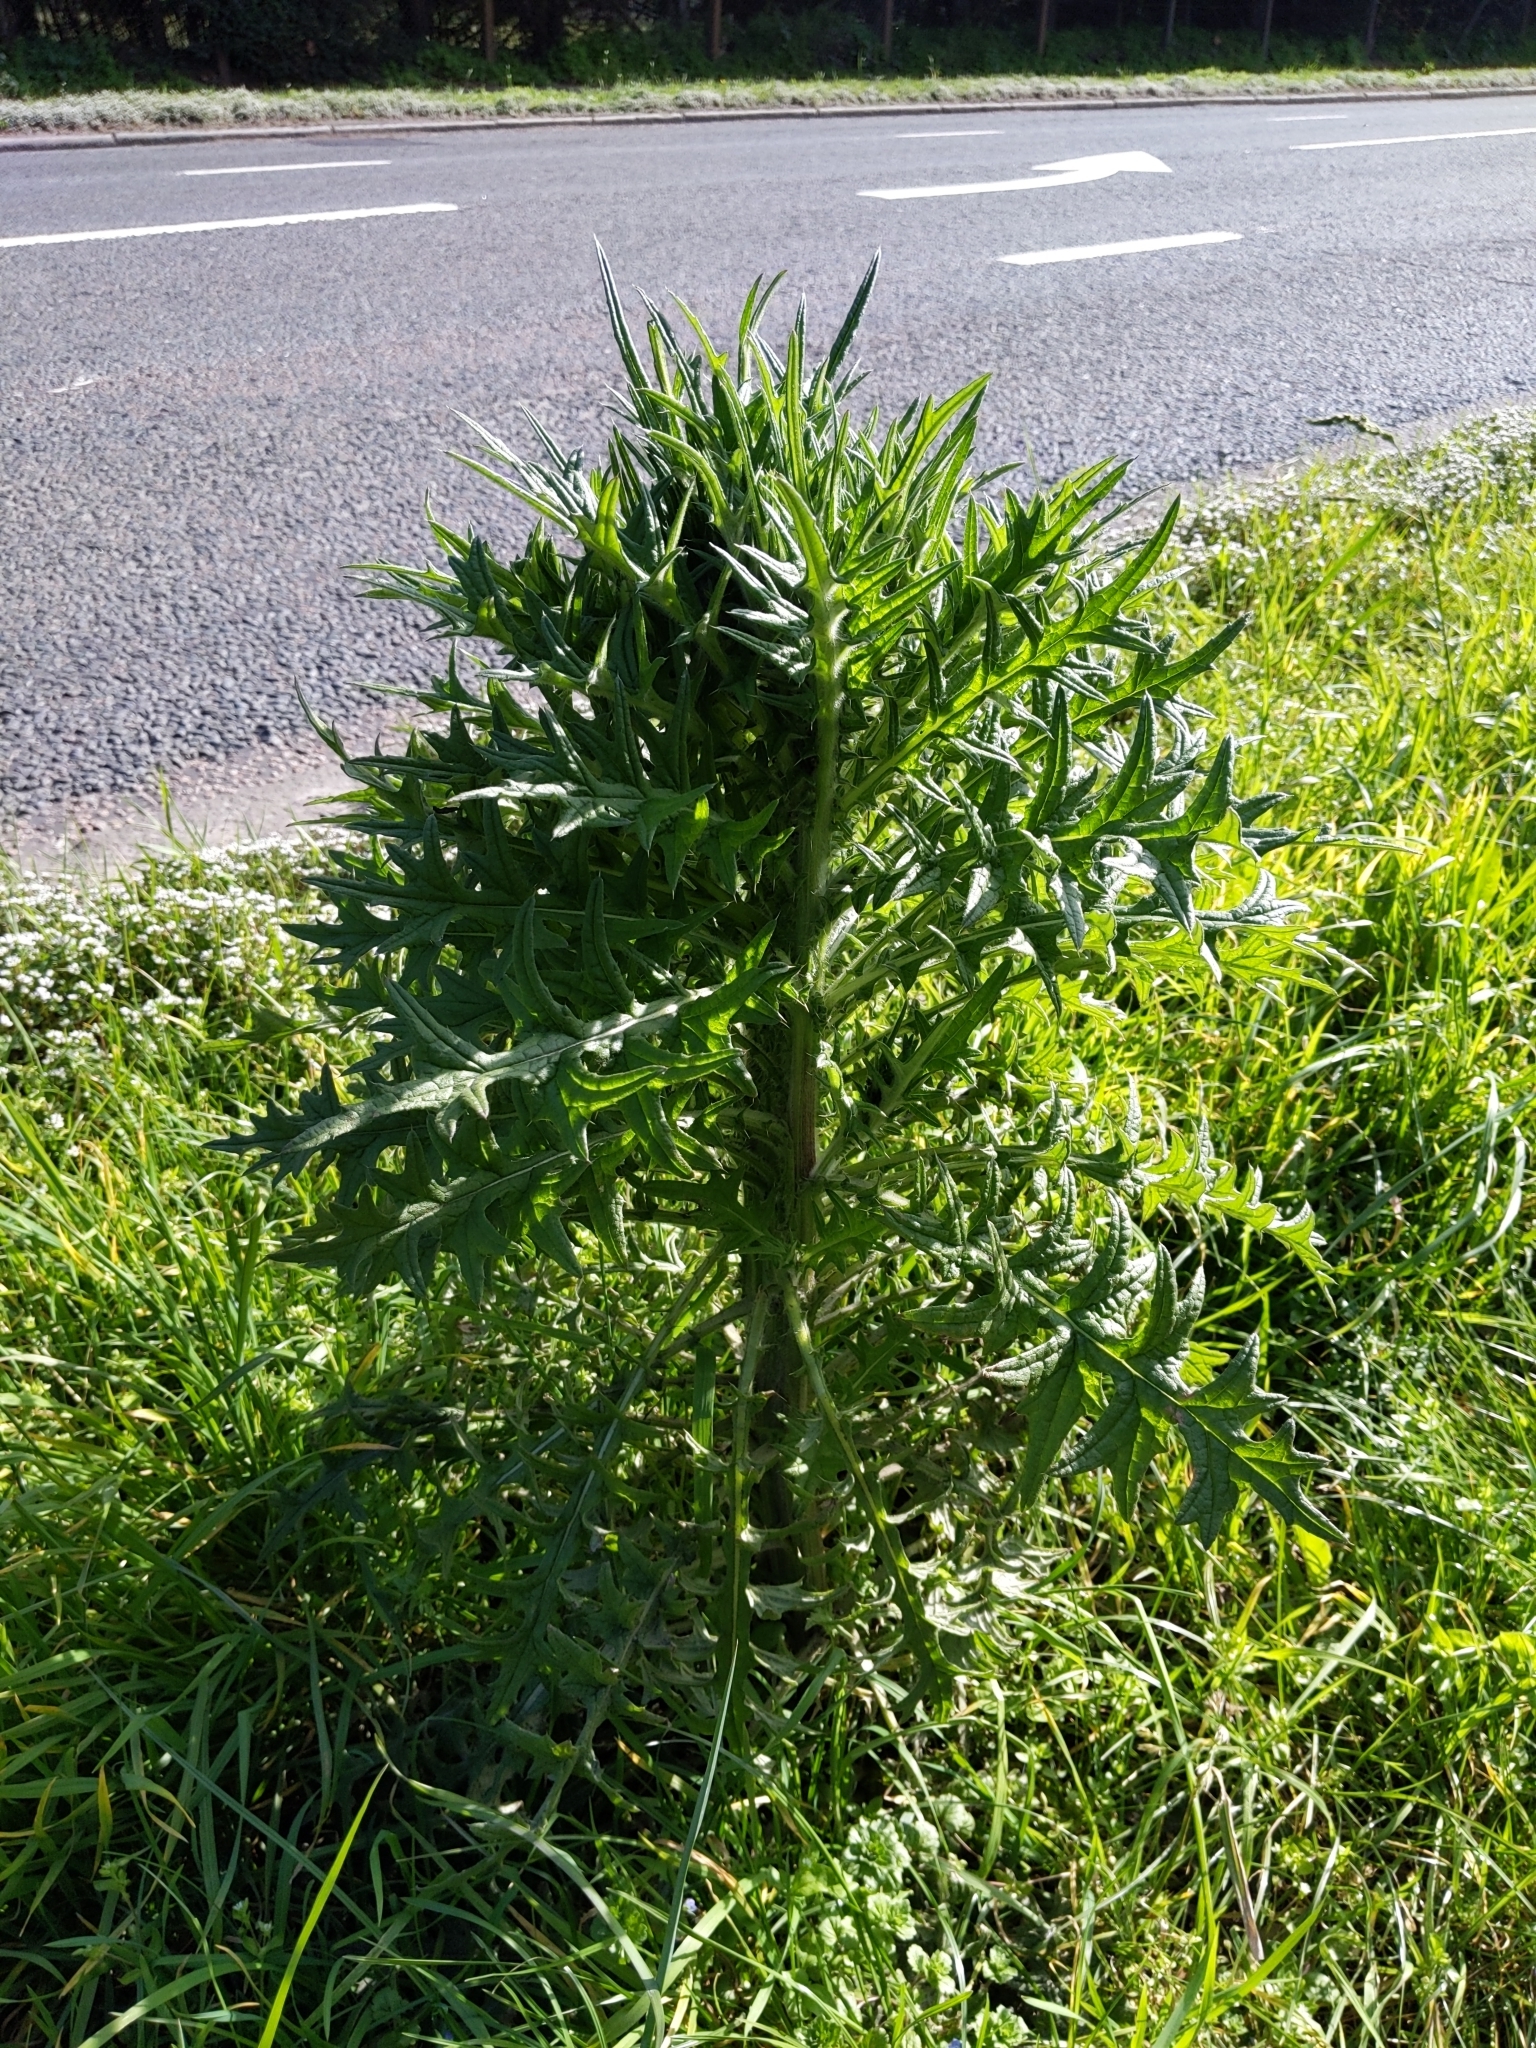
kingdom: Plantae
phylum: Tracheophyta
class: Magnoliopsida
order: Asterales
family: Asteraceae
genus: Cirsium
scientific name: Cirsium vulgare
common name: Bull thistle
